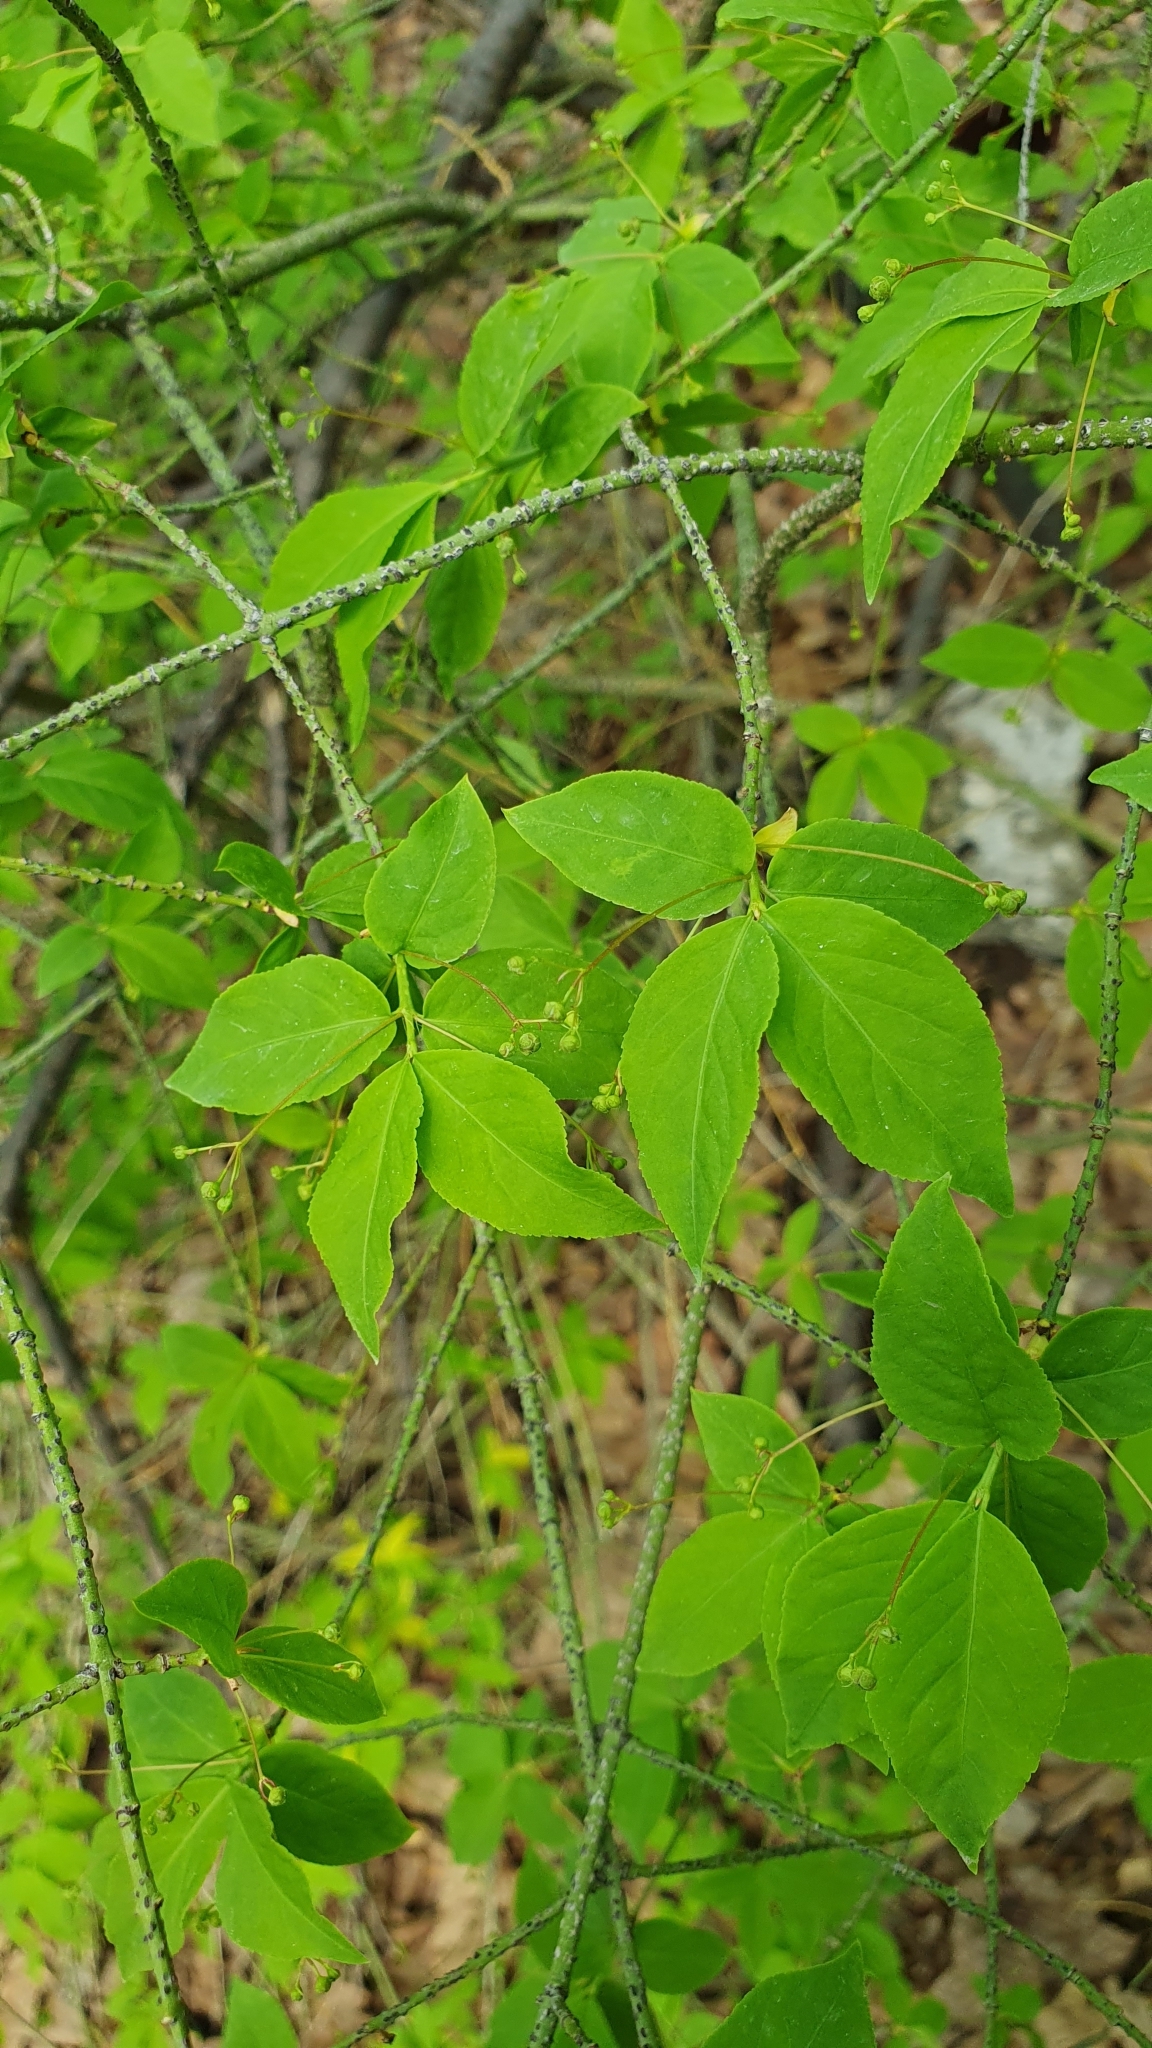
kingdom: Plantae
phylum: Tracheophyta
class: Magnoliopsida
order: Celastrales
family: Celastraceae
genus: Euonymus
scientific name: Euonymus verrucosus
